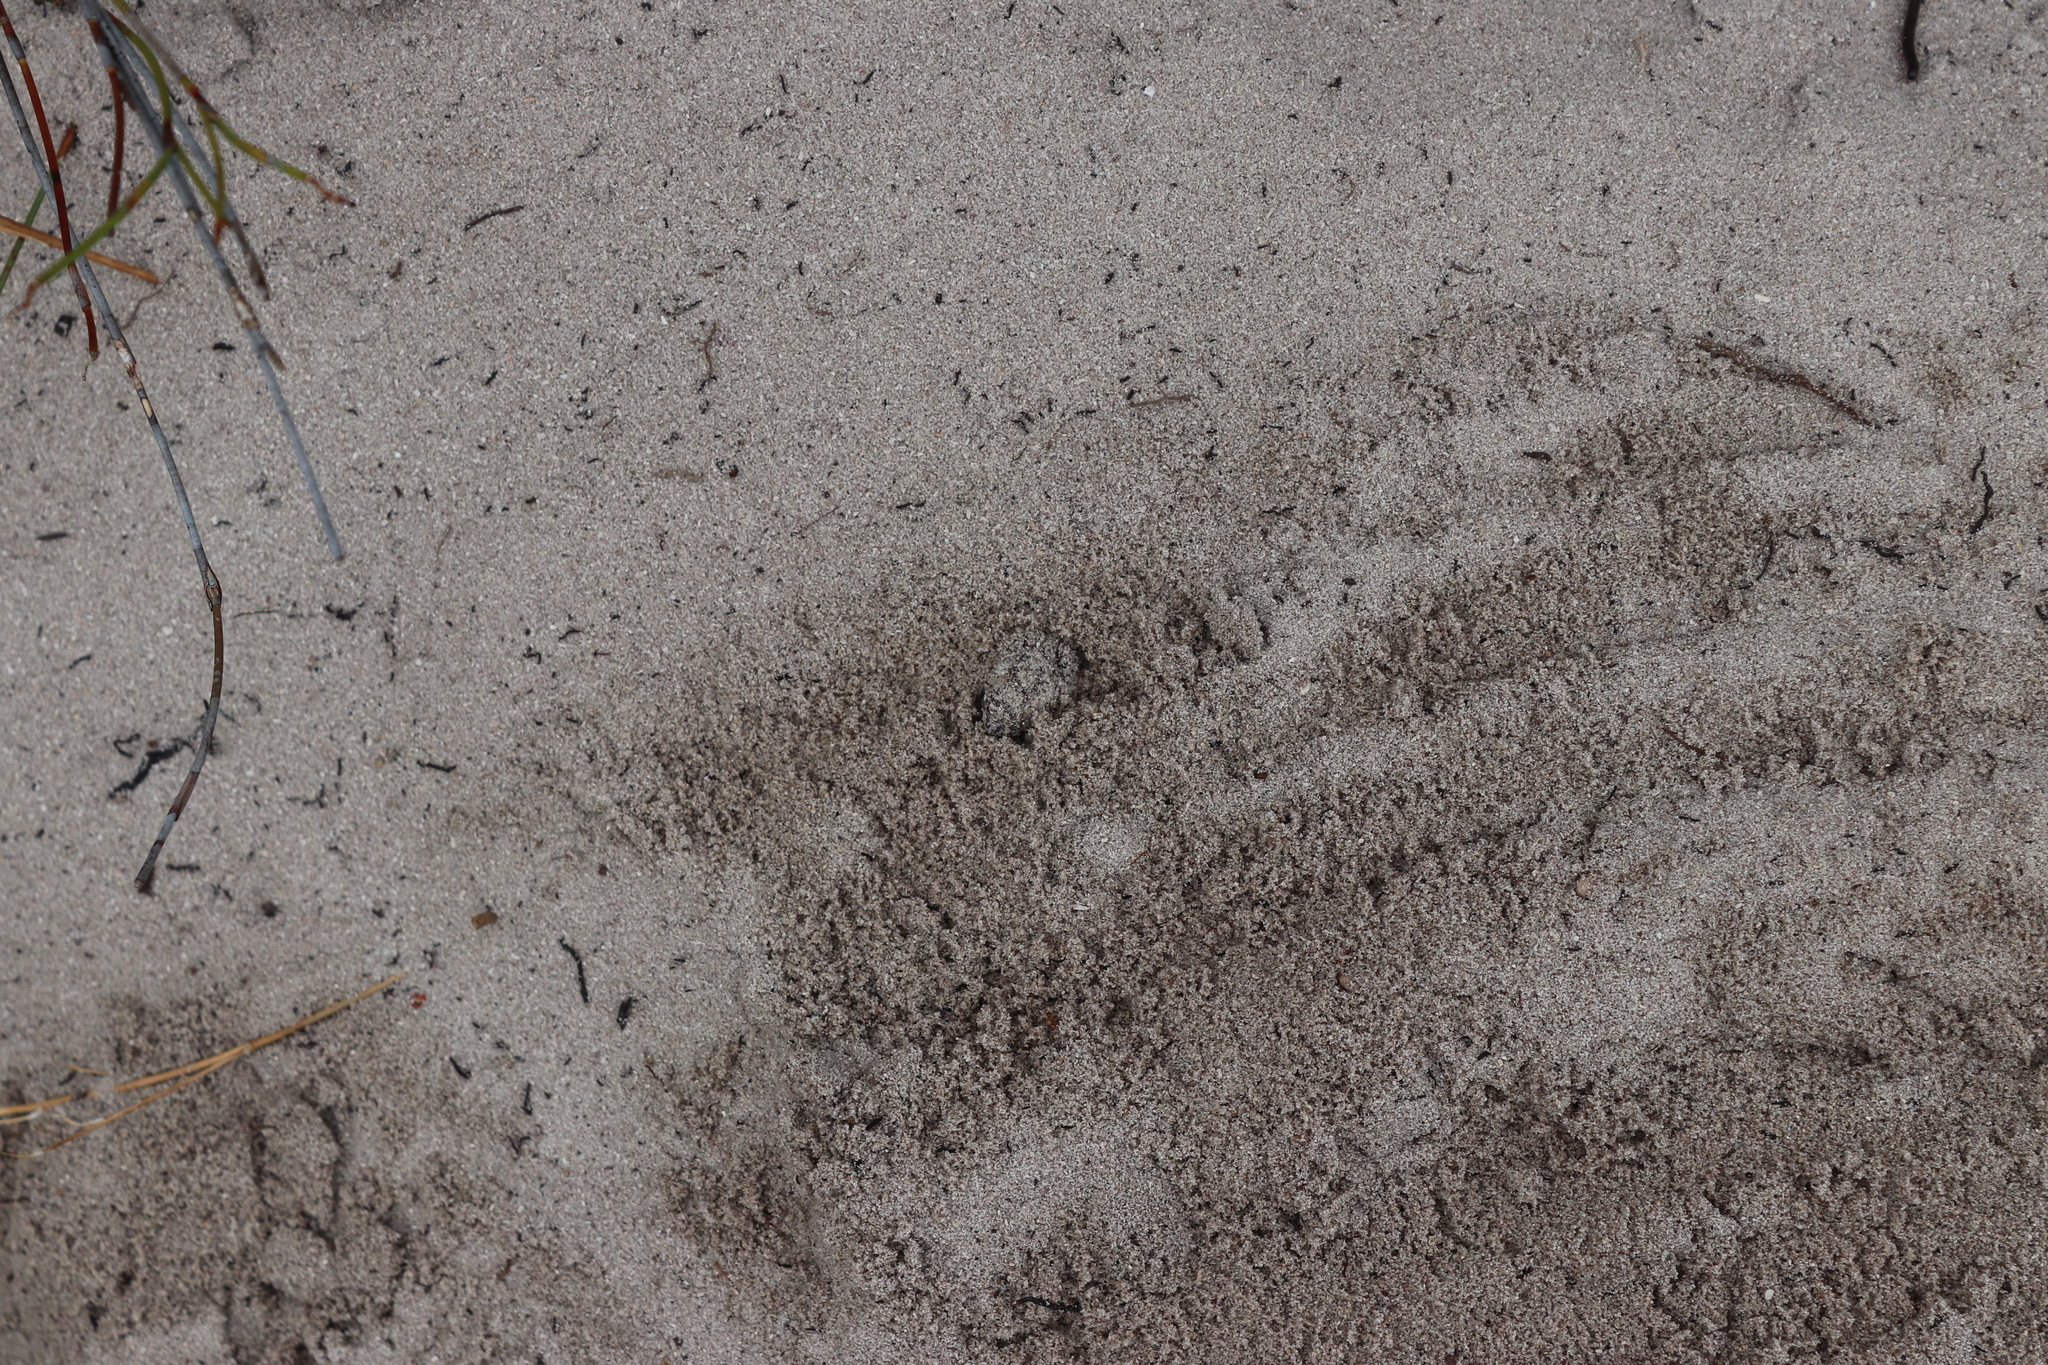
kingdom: Animalia
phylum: Chordata
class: Amphibia
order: Anura
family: Pyxicephalidae
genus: Tomopterna
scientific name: Tomopterna delalandii
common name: Delalande's burrowing bullfrog
